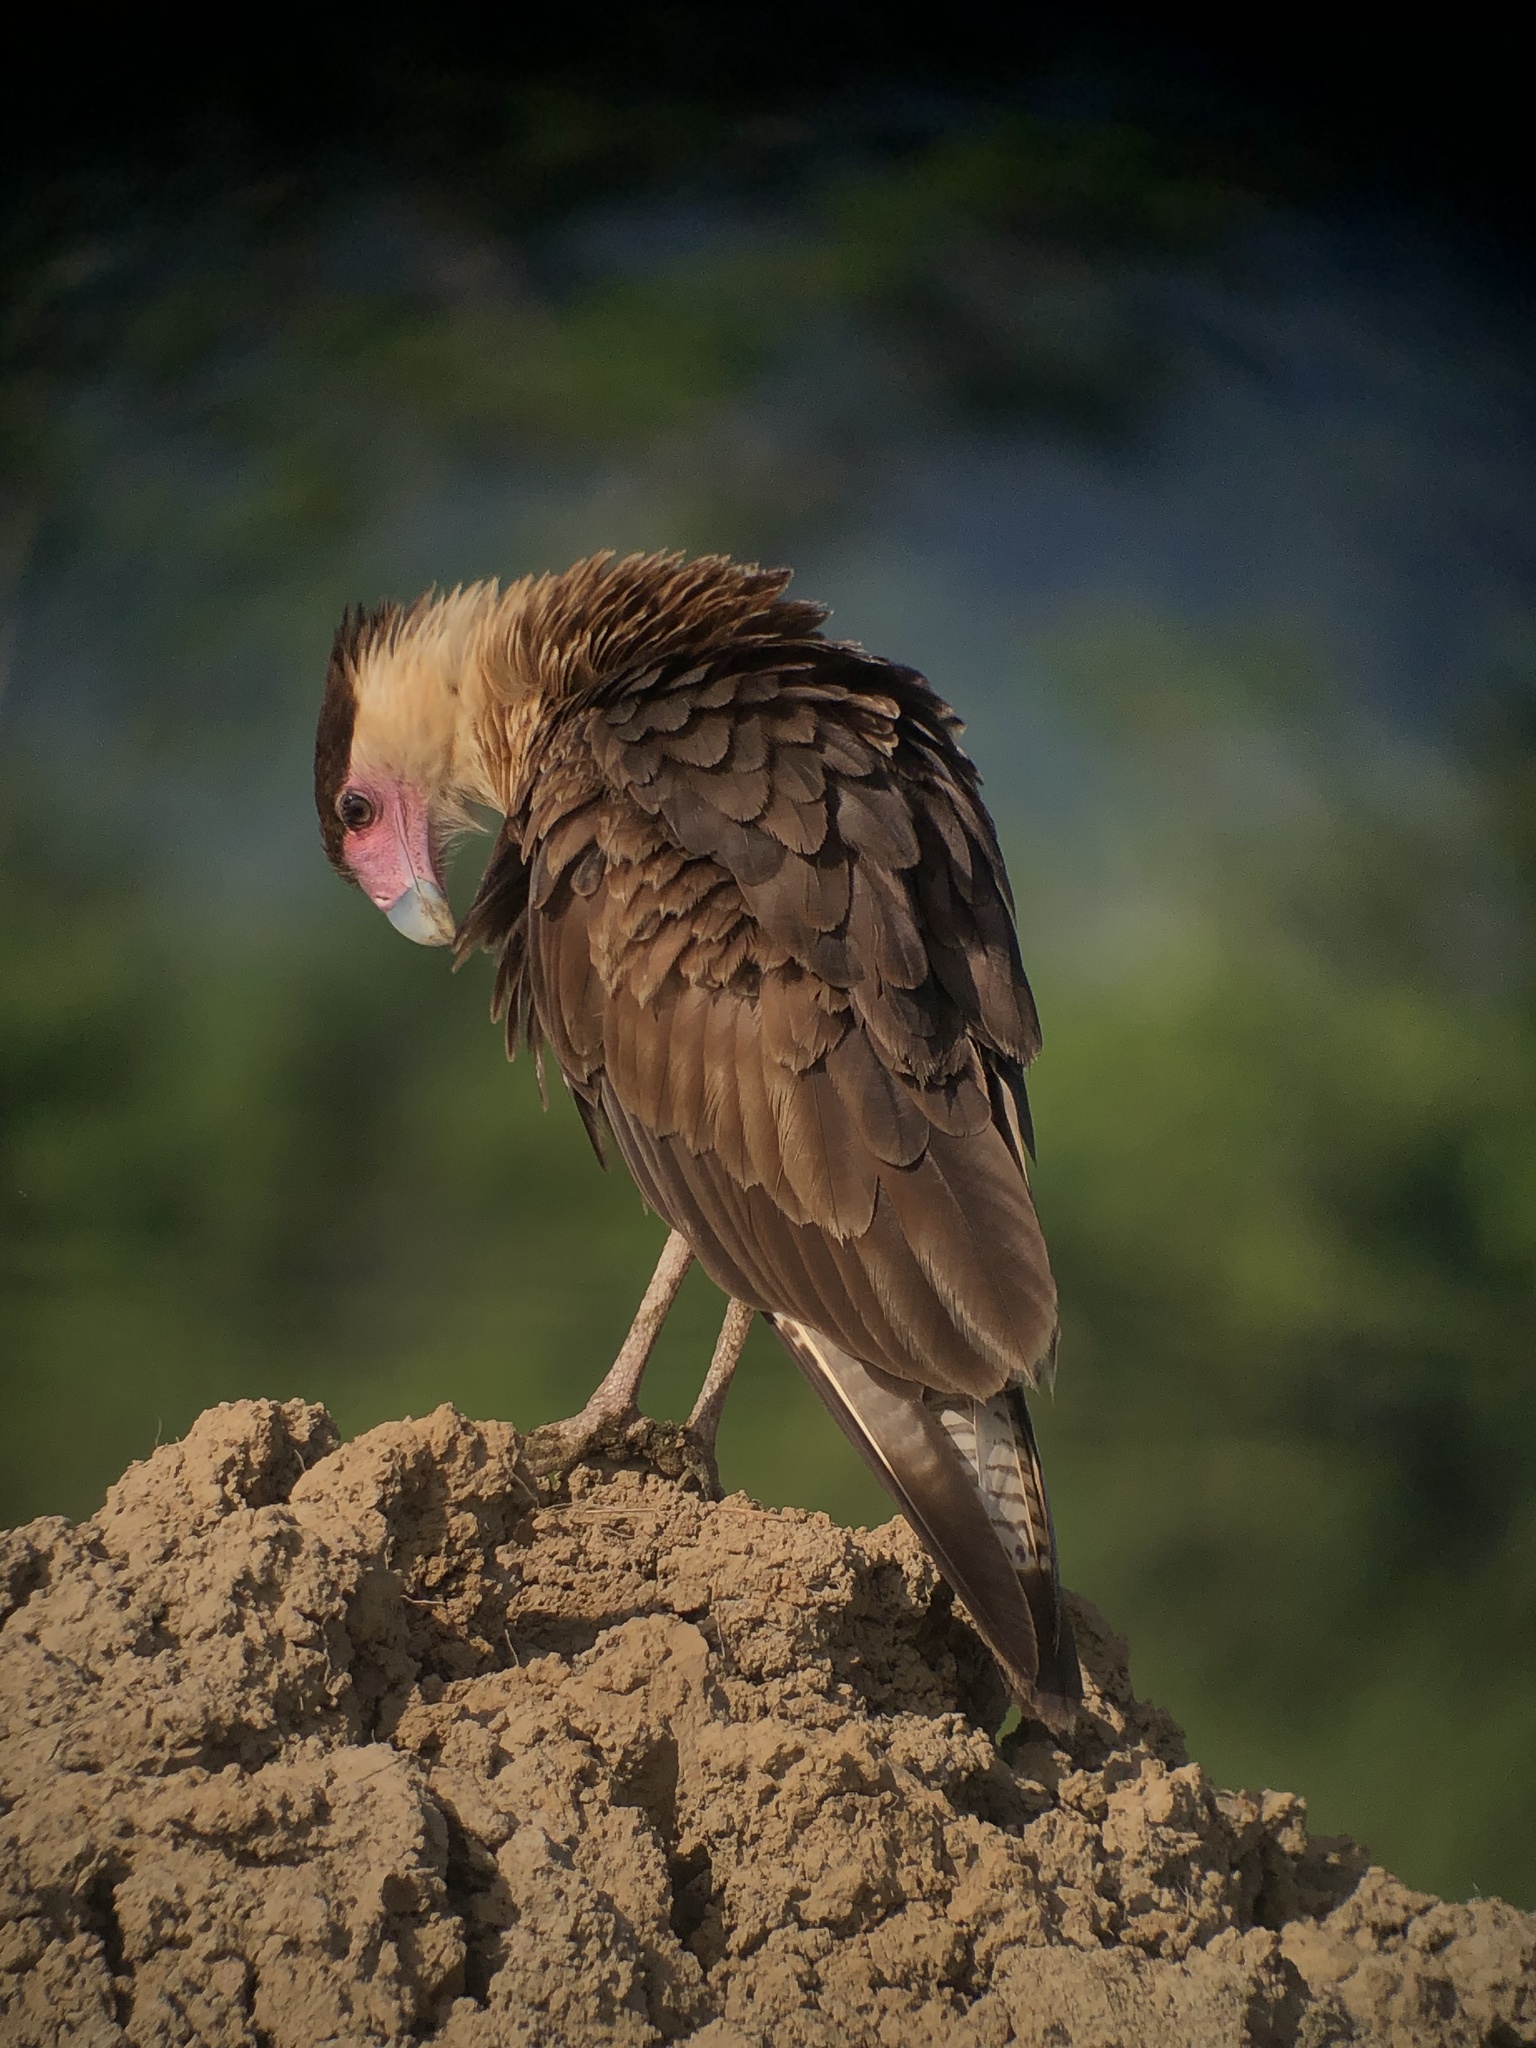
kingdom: Animalia
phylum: Chordata
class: Aves
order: Falconiformes
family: Falconidae
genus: Caracara
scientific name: Caracara plancus
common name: Southern caracara
